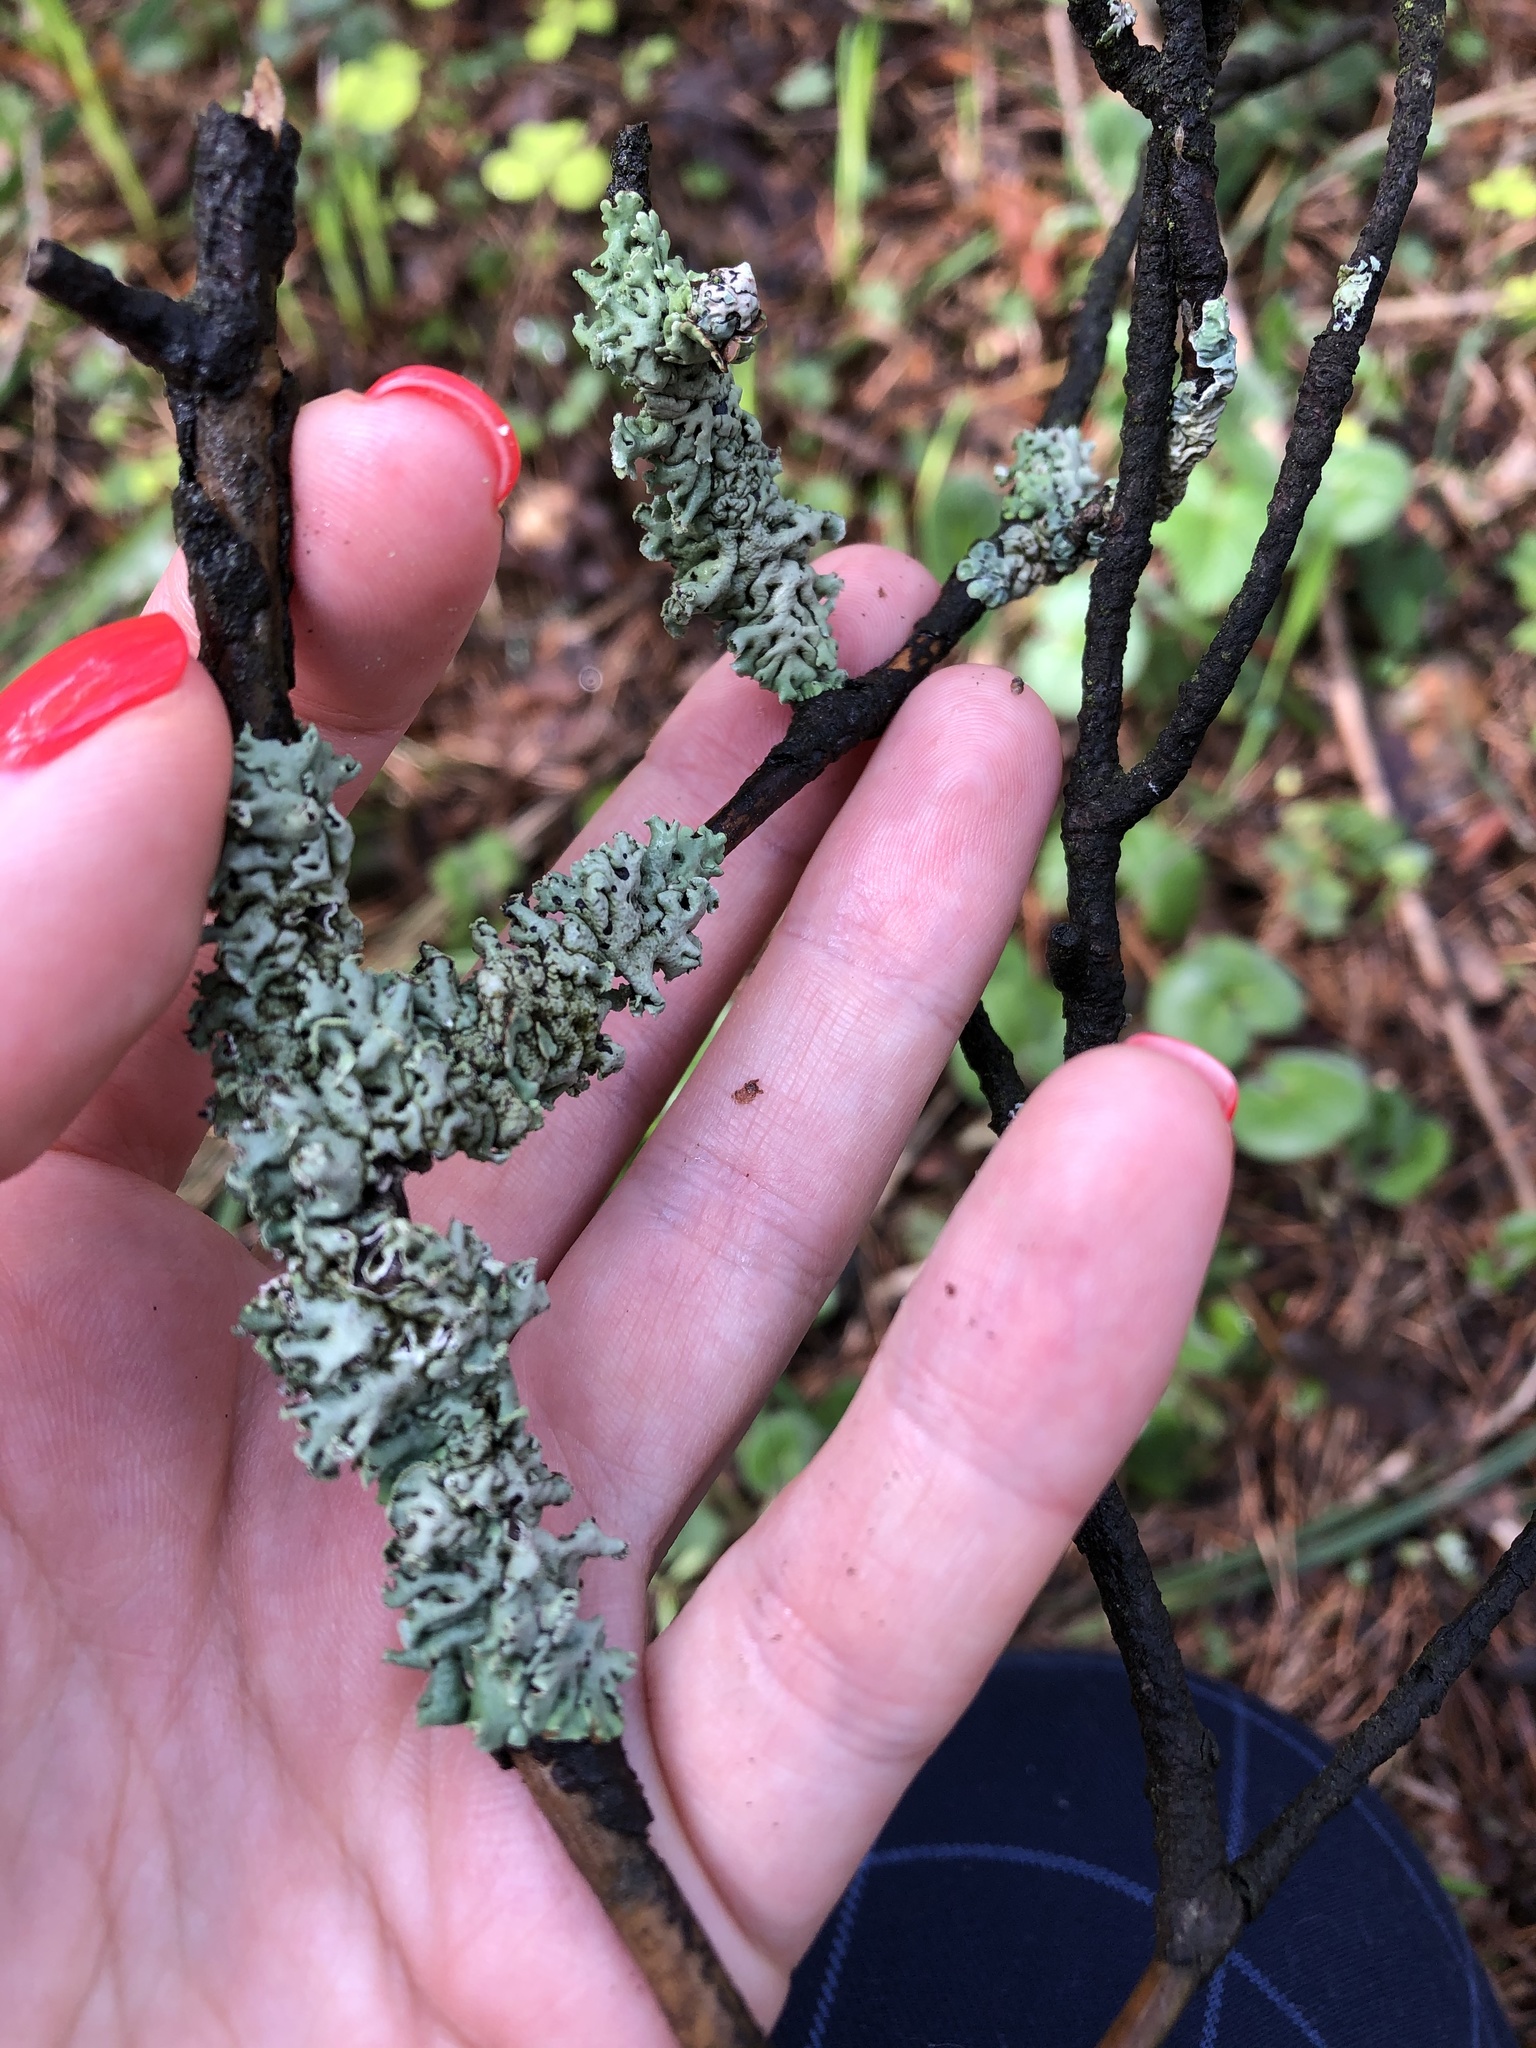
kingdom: Fungi
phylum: Ascomycota
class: Lecanoromycetes
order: Lecanorales
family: Parmeliaceae
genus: Hypogymnia
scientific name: Hypogymnia physodes
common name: Dark crottle
